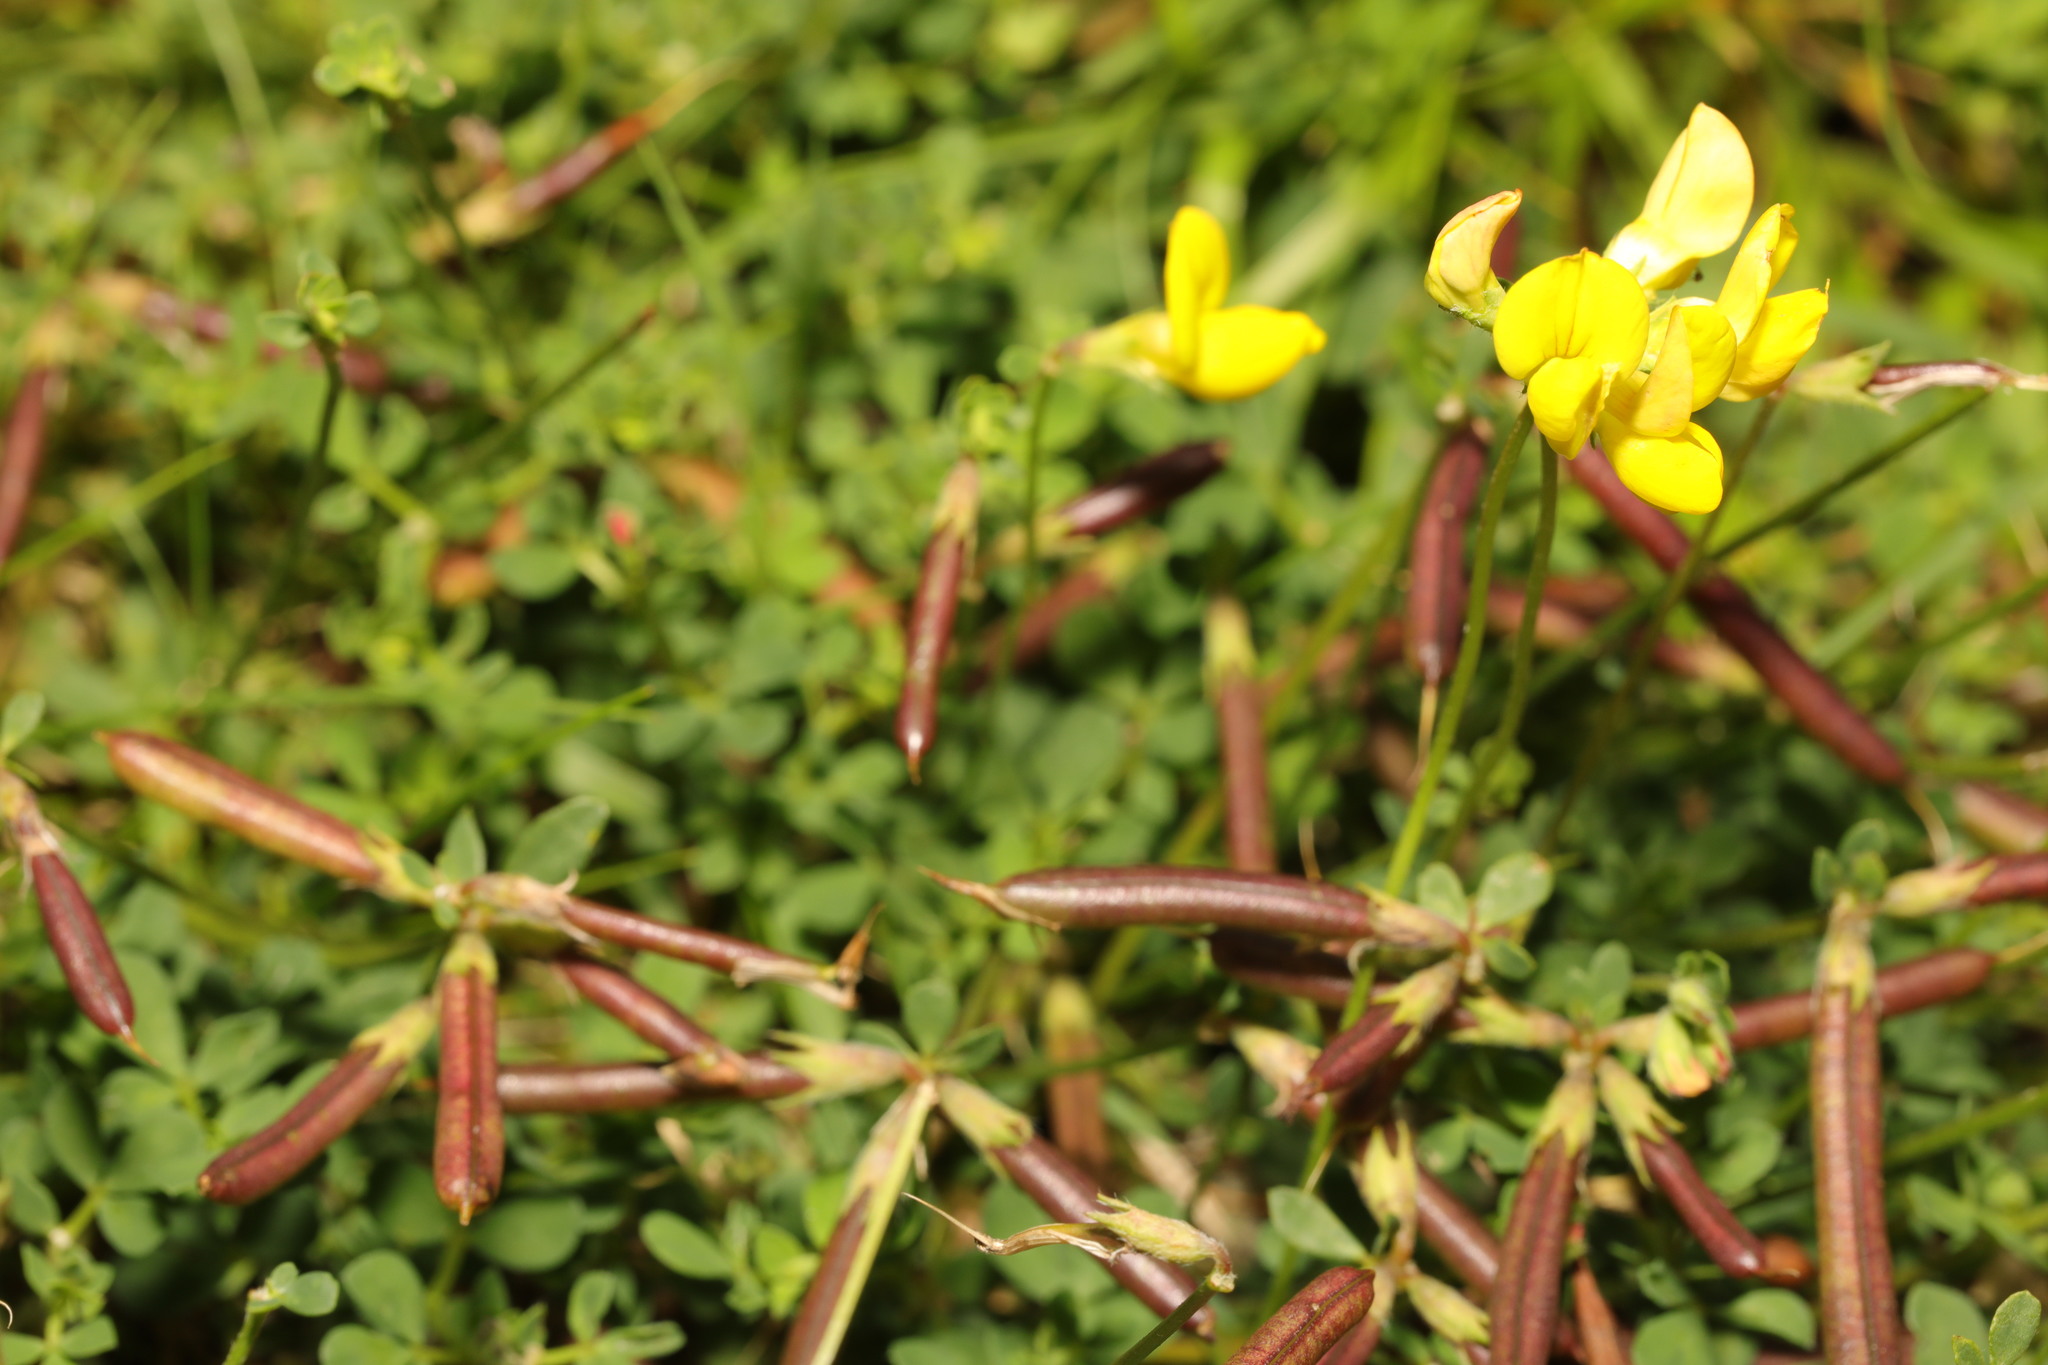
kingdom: Plantae
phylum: Tracheophyta
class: Magnoliopsida
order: Fabales
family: Fabaceae
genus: Lotus
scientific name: Lotus corniculatus
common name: Common bird's-foot-trefoil
